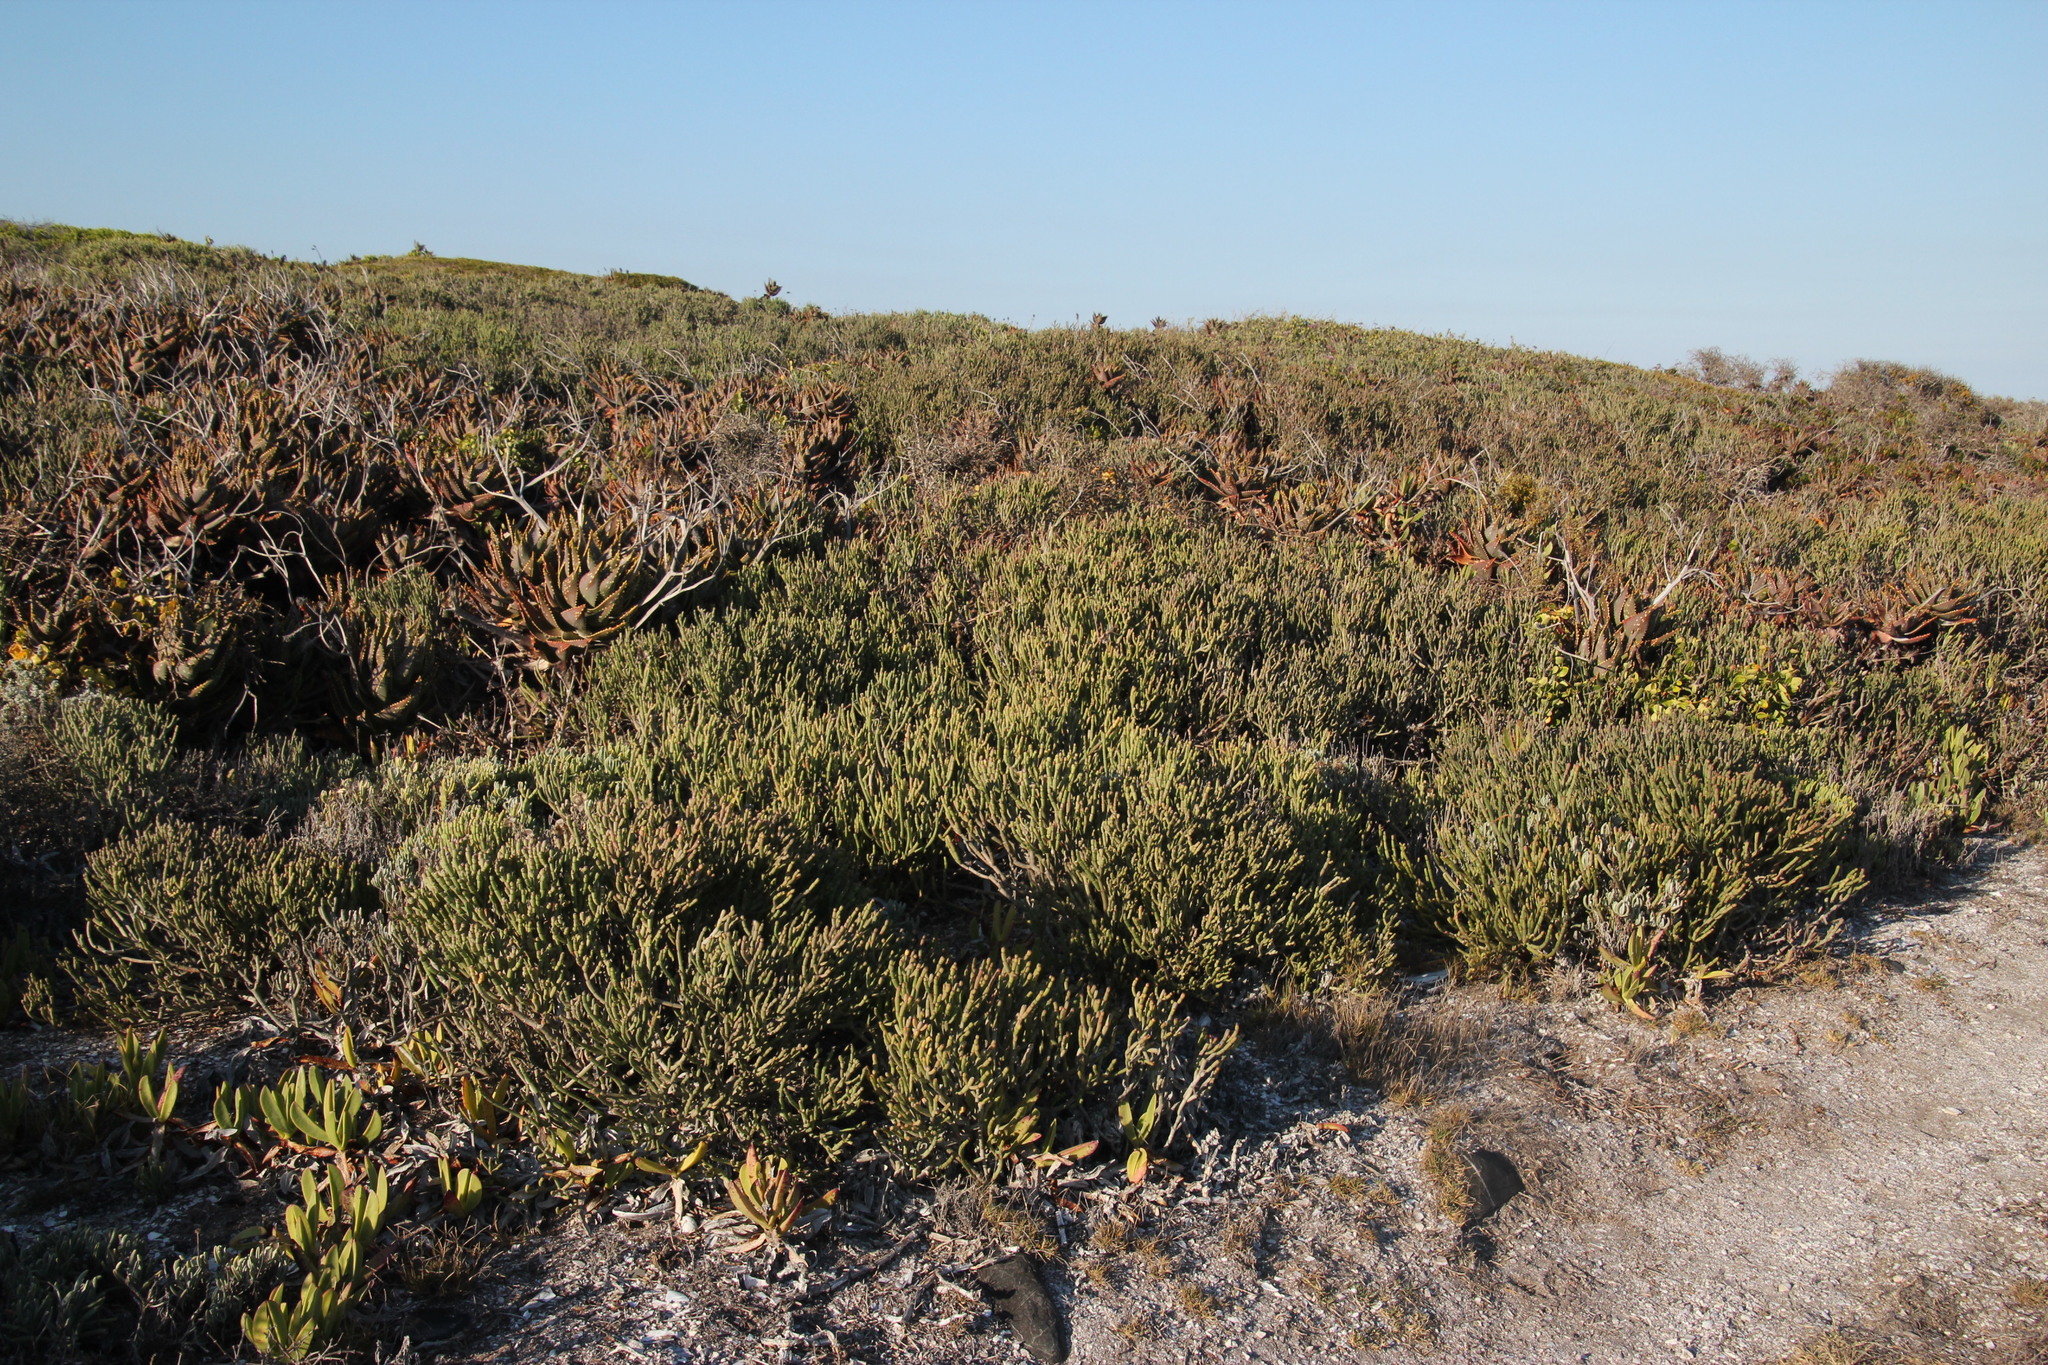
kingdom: Plantae
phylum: Tracheophyta
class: Magnoliopsida
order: Malpighiales
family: Euphorbiaceae
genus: Euphorbia
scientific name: Euphorbia burmanni
